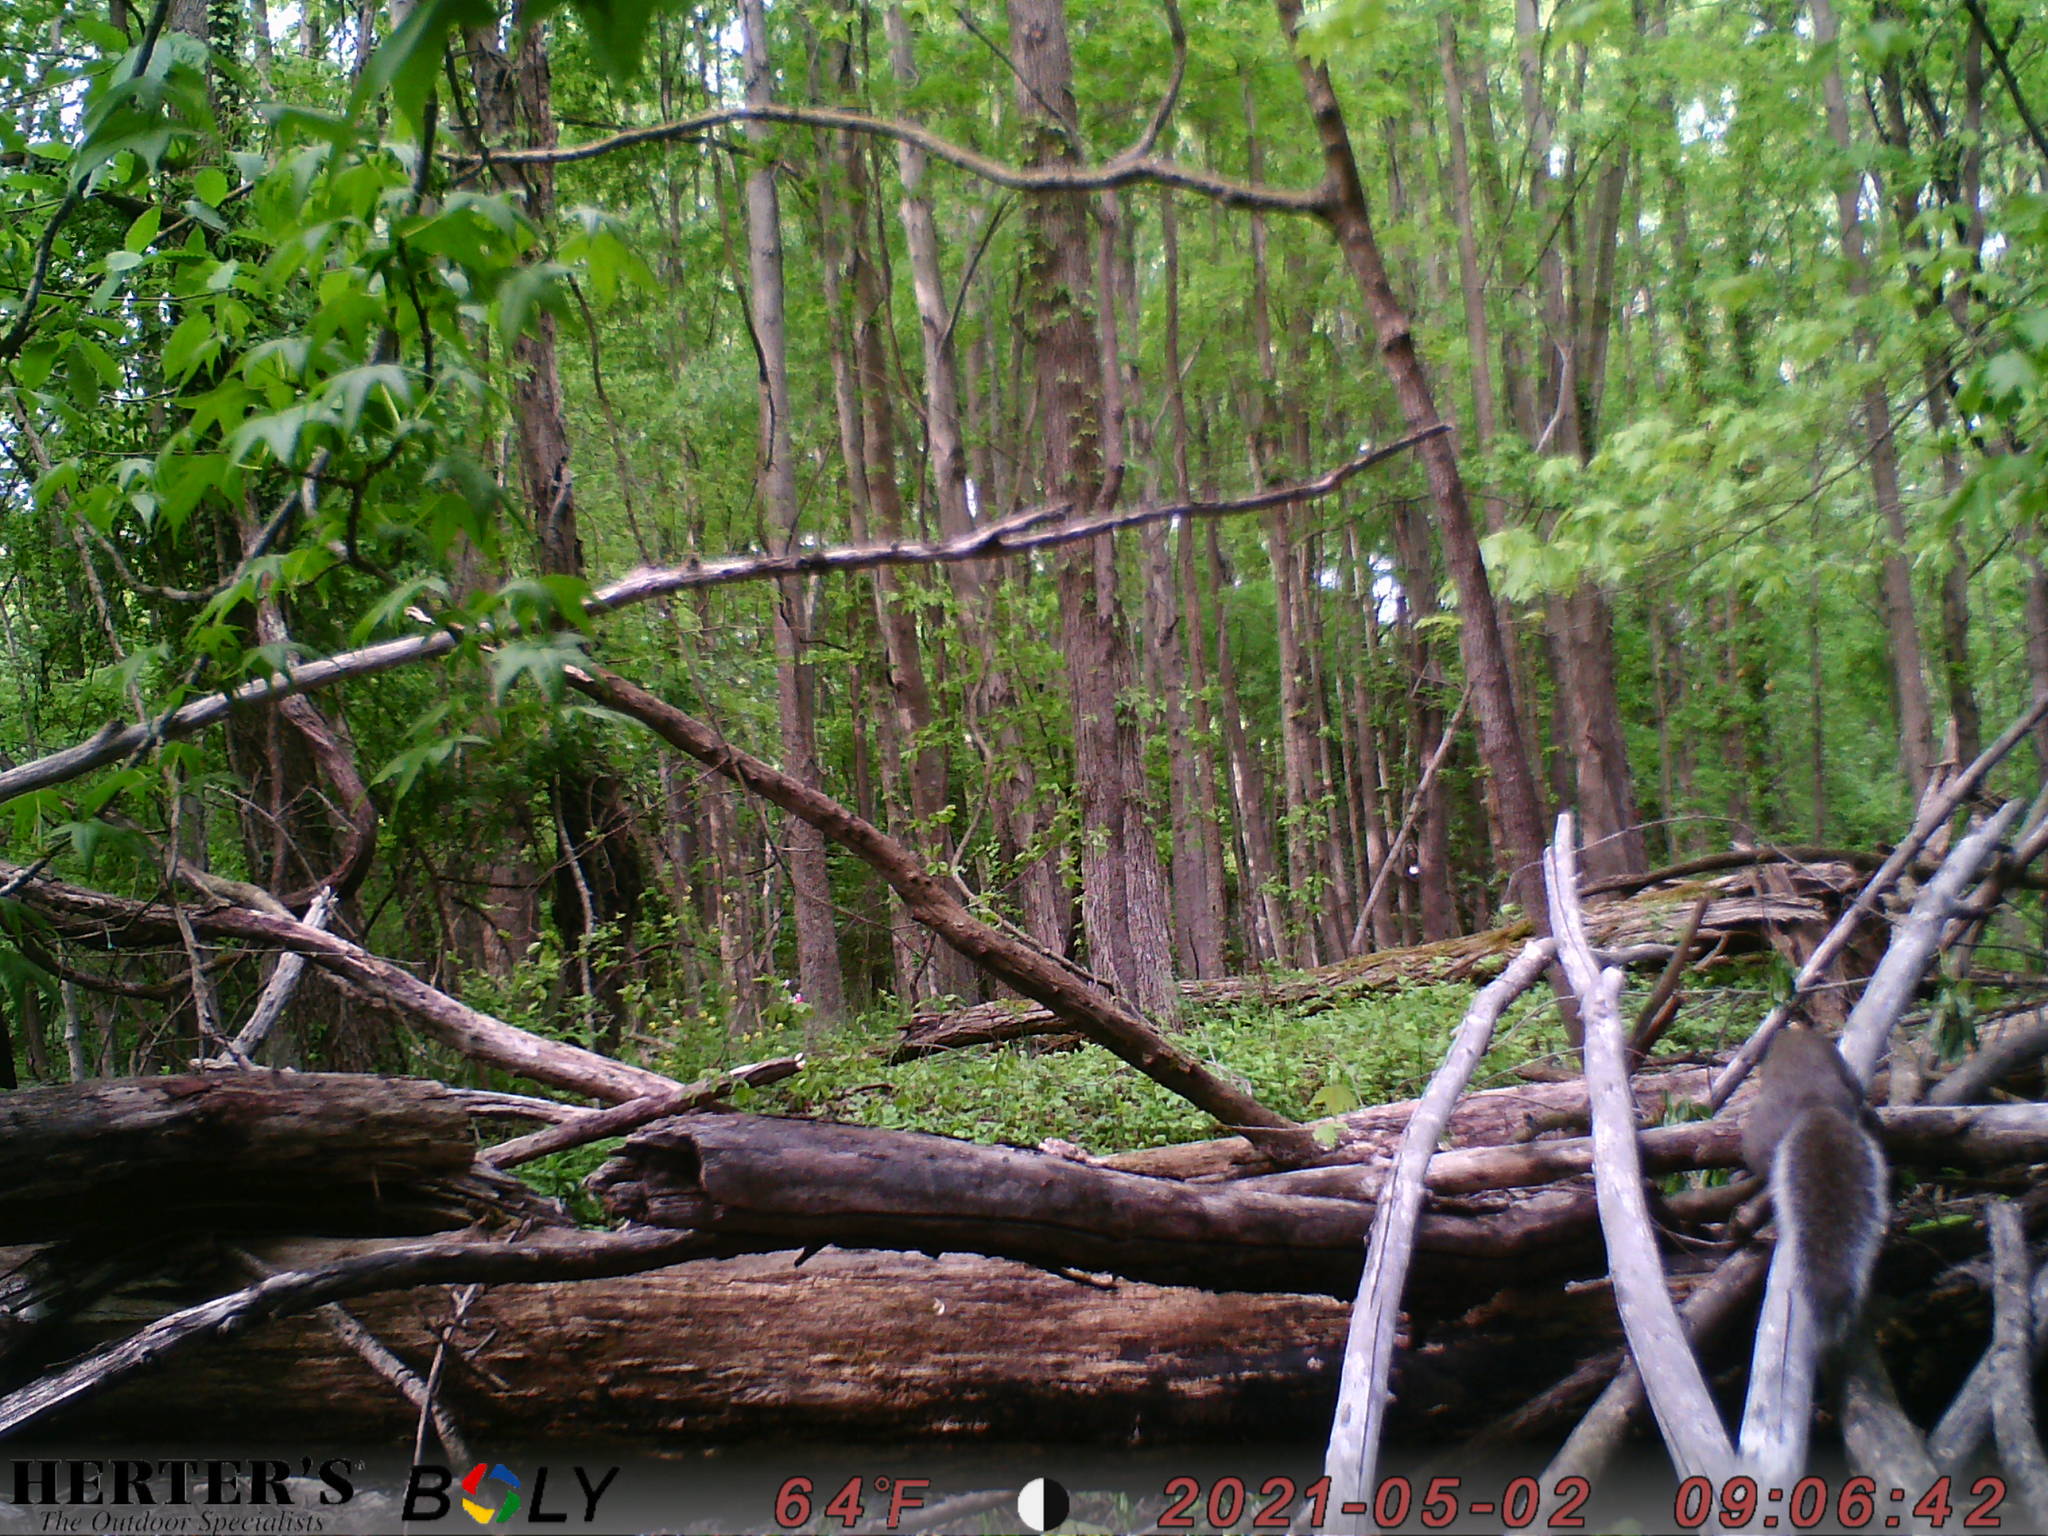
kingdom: Animalia
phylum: Chordata
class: Mammalia
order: Rodentia
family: Sciuridae
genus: Sciurus
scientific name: Sciurus carolinensis
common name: Eastern gray squirrel
